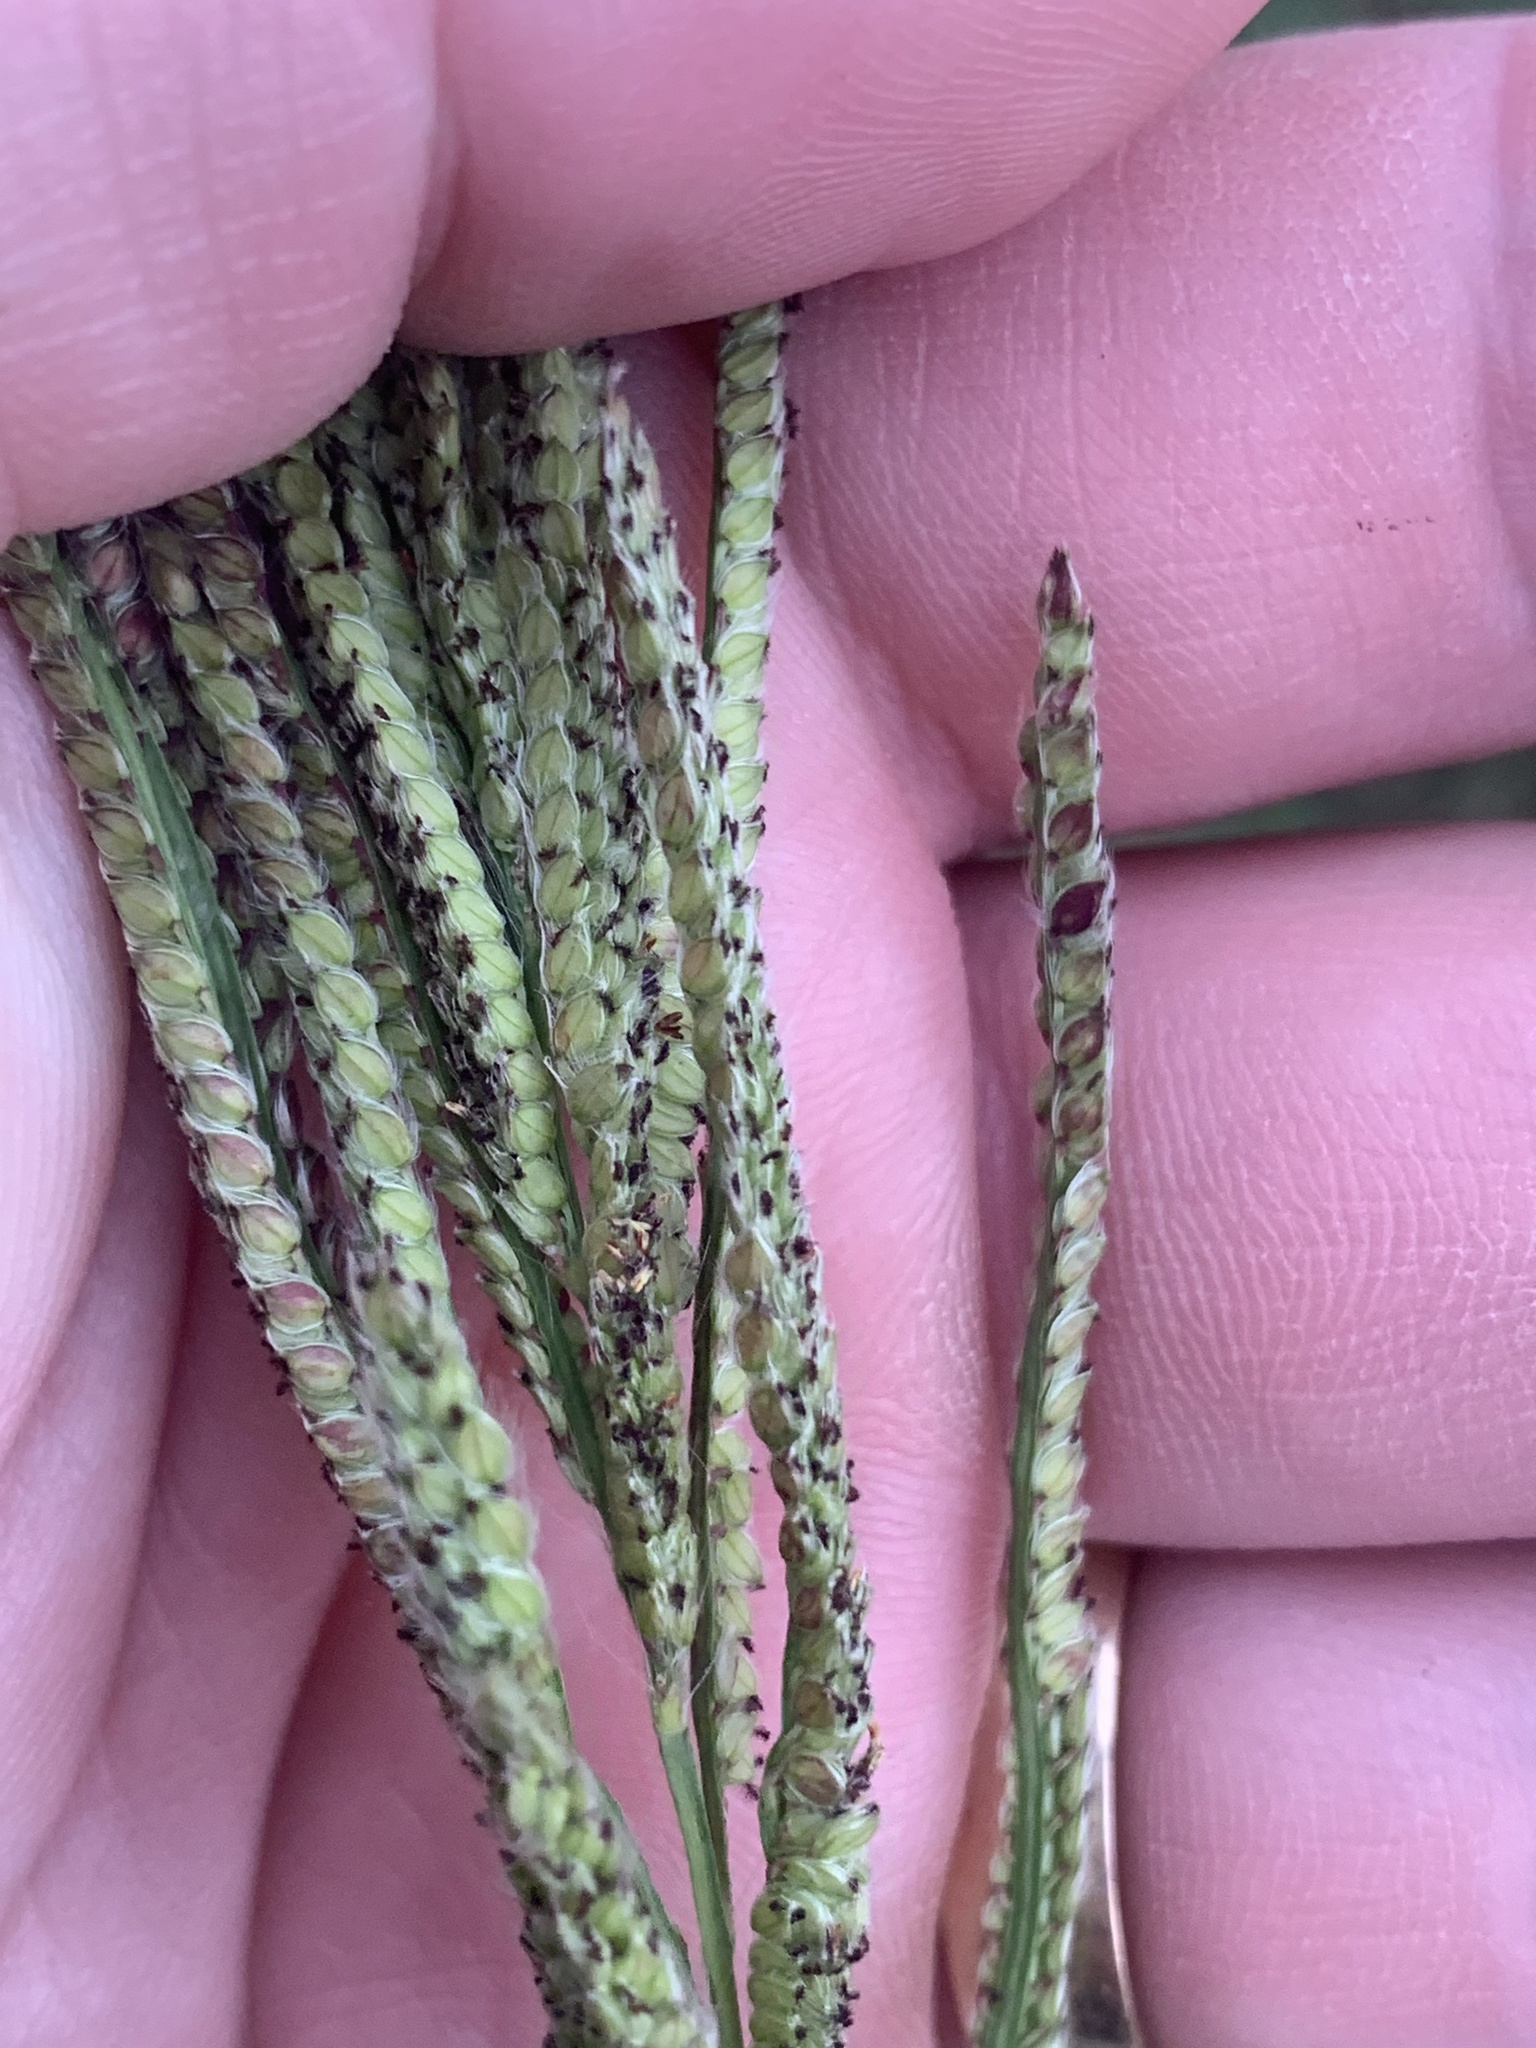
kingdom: Plantae
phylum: Tracheophyta
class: Liliopsida
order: Poales
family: Poaceae
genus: Paspalum
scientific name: Paspalum urvillei
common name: Vasey's grass
